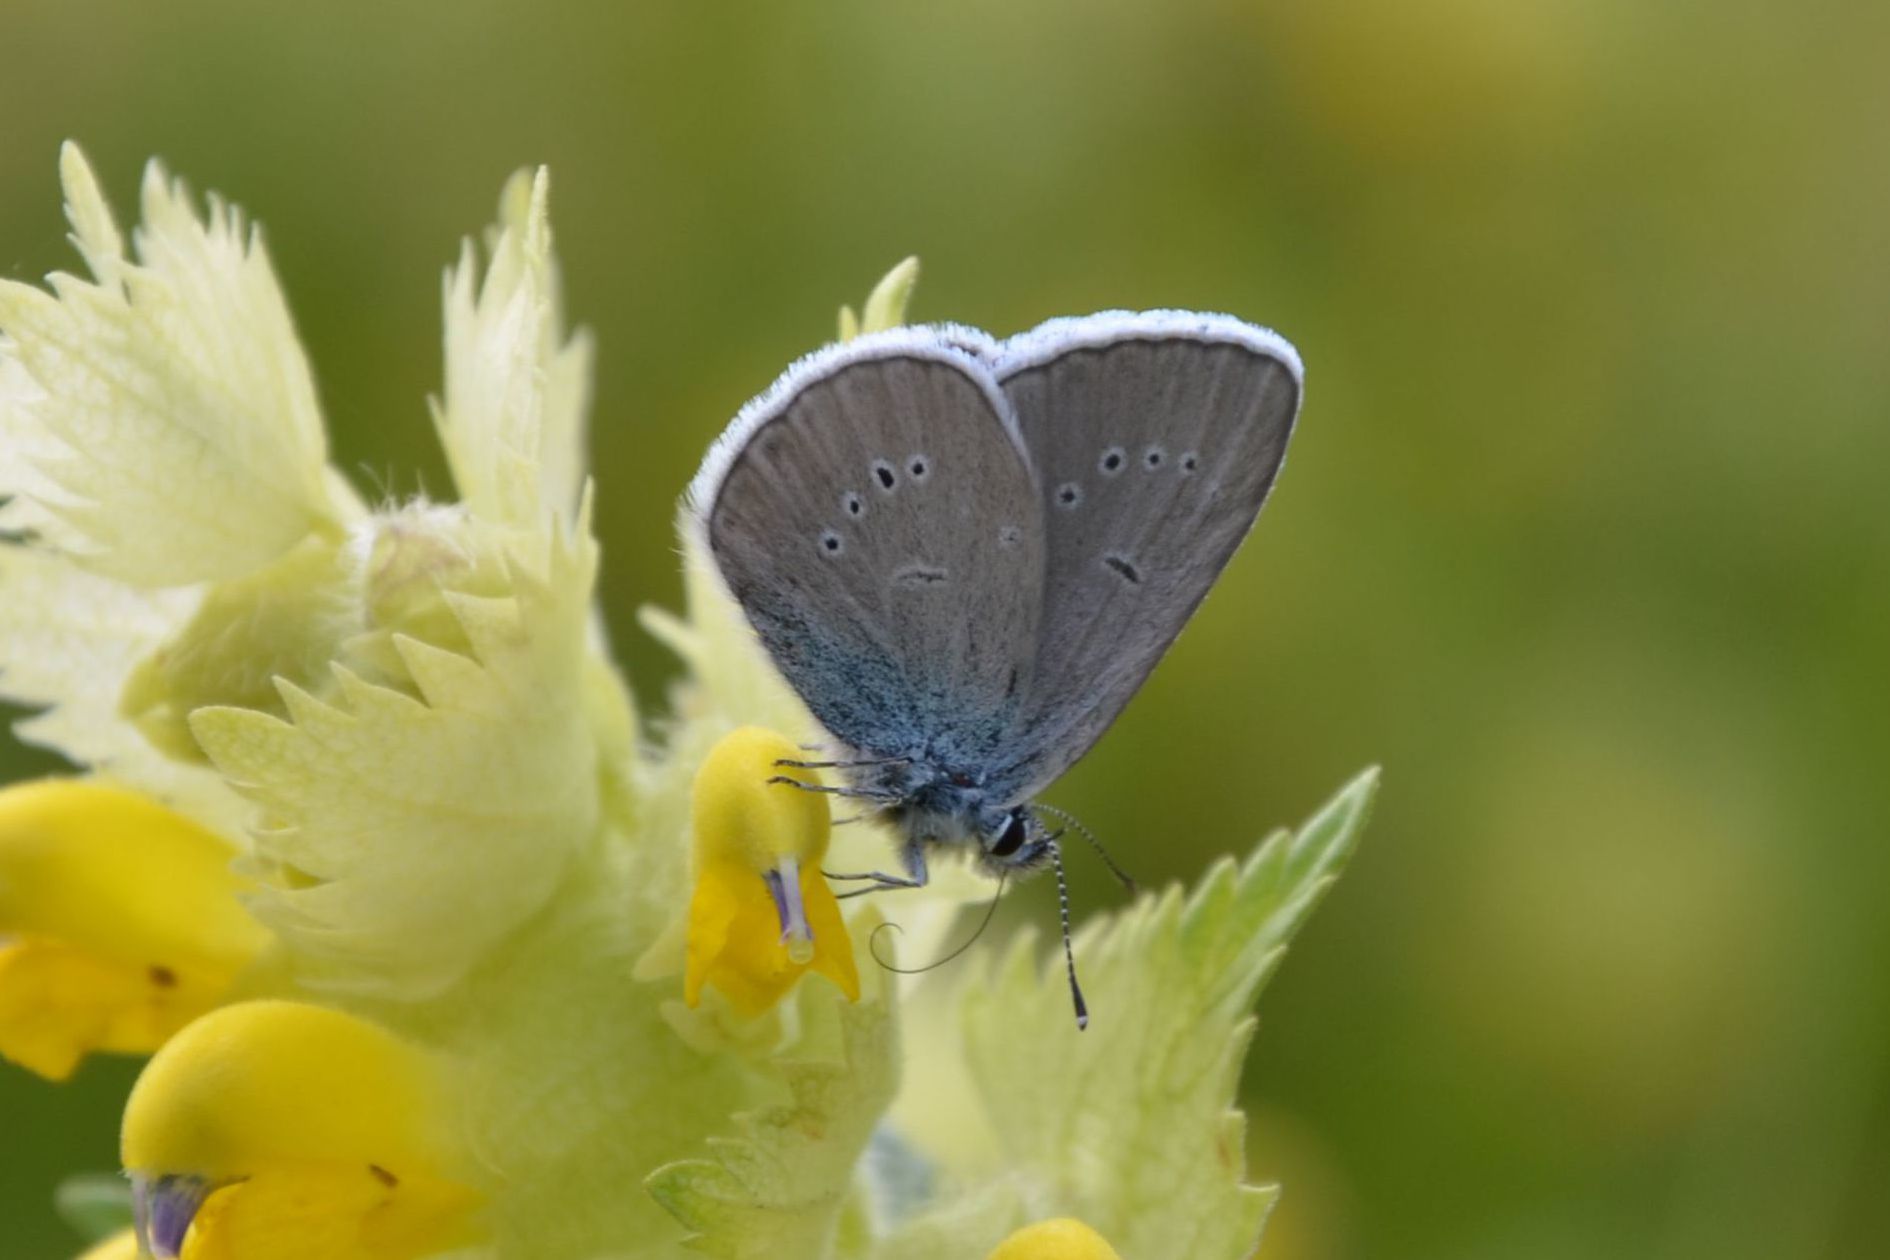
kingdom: Animalia
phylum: Arthropoda
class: Insecta
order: Lepidoptera
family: Lycaenidae
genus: Cyaniris
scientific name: Cyaniris semiargus
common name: Mazarine blue
